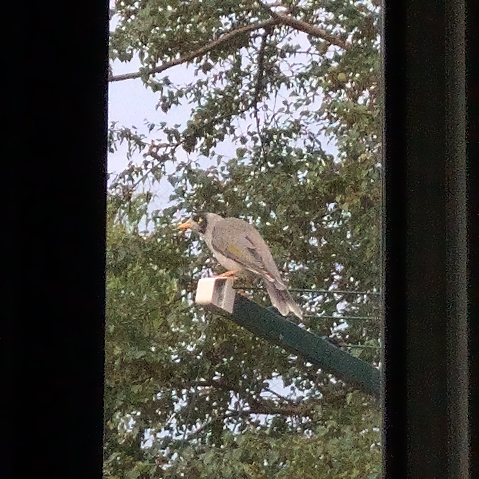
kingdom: Animalia
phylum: Chordata
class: Aves
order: Passeriformes
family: Meliphagidae
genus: Manorina
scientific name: Manorina melanocephala
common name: Noisy miner
